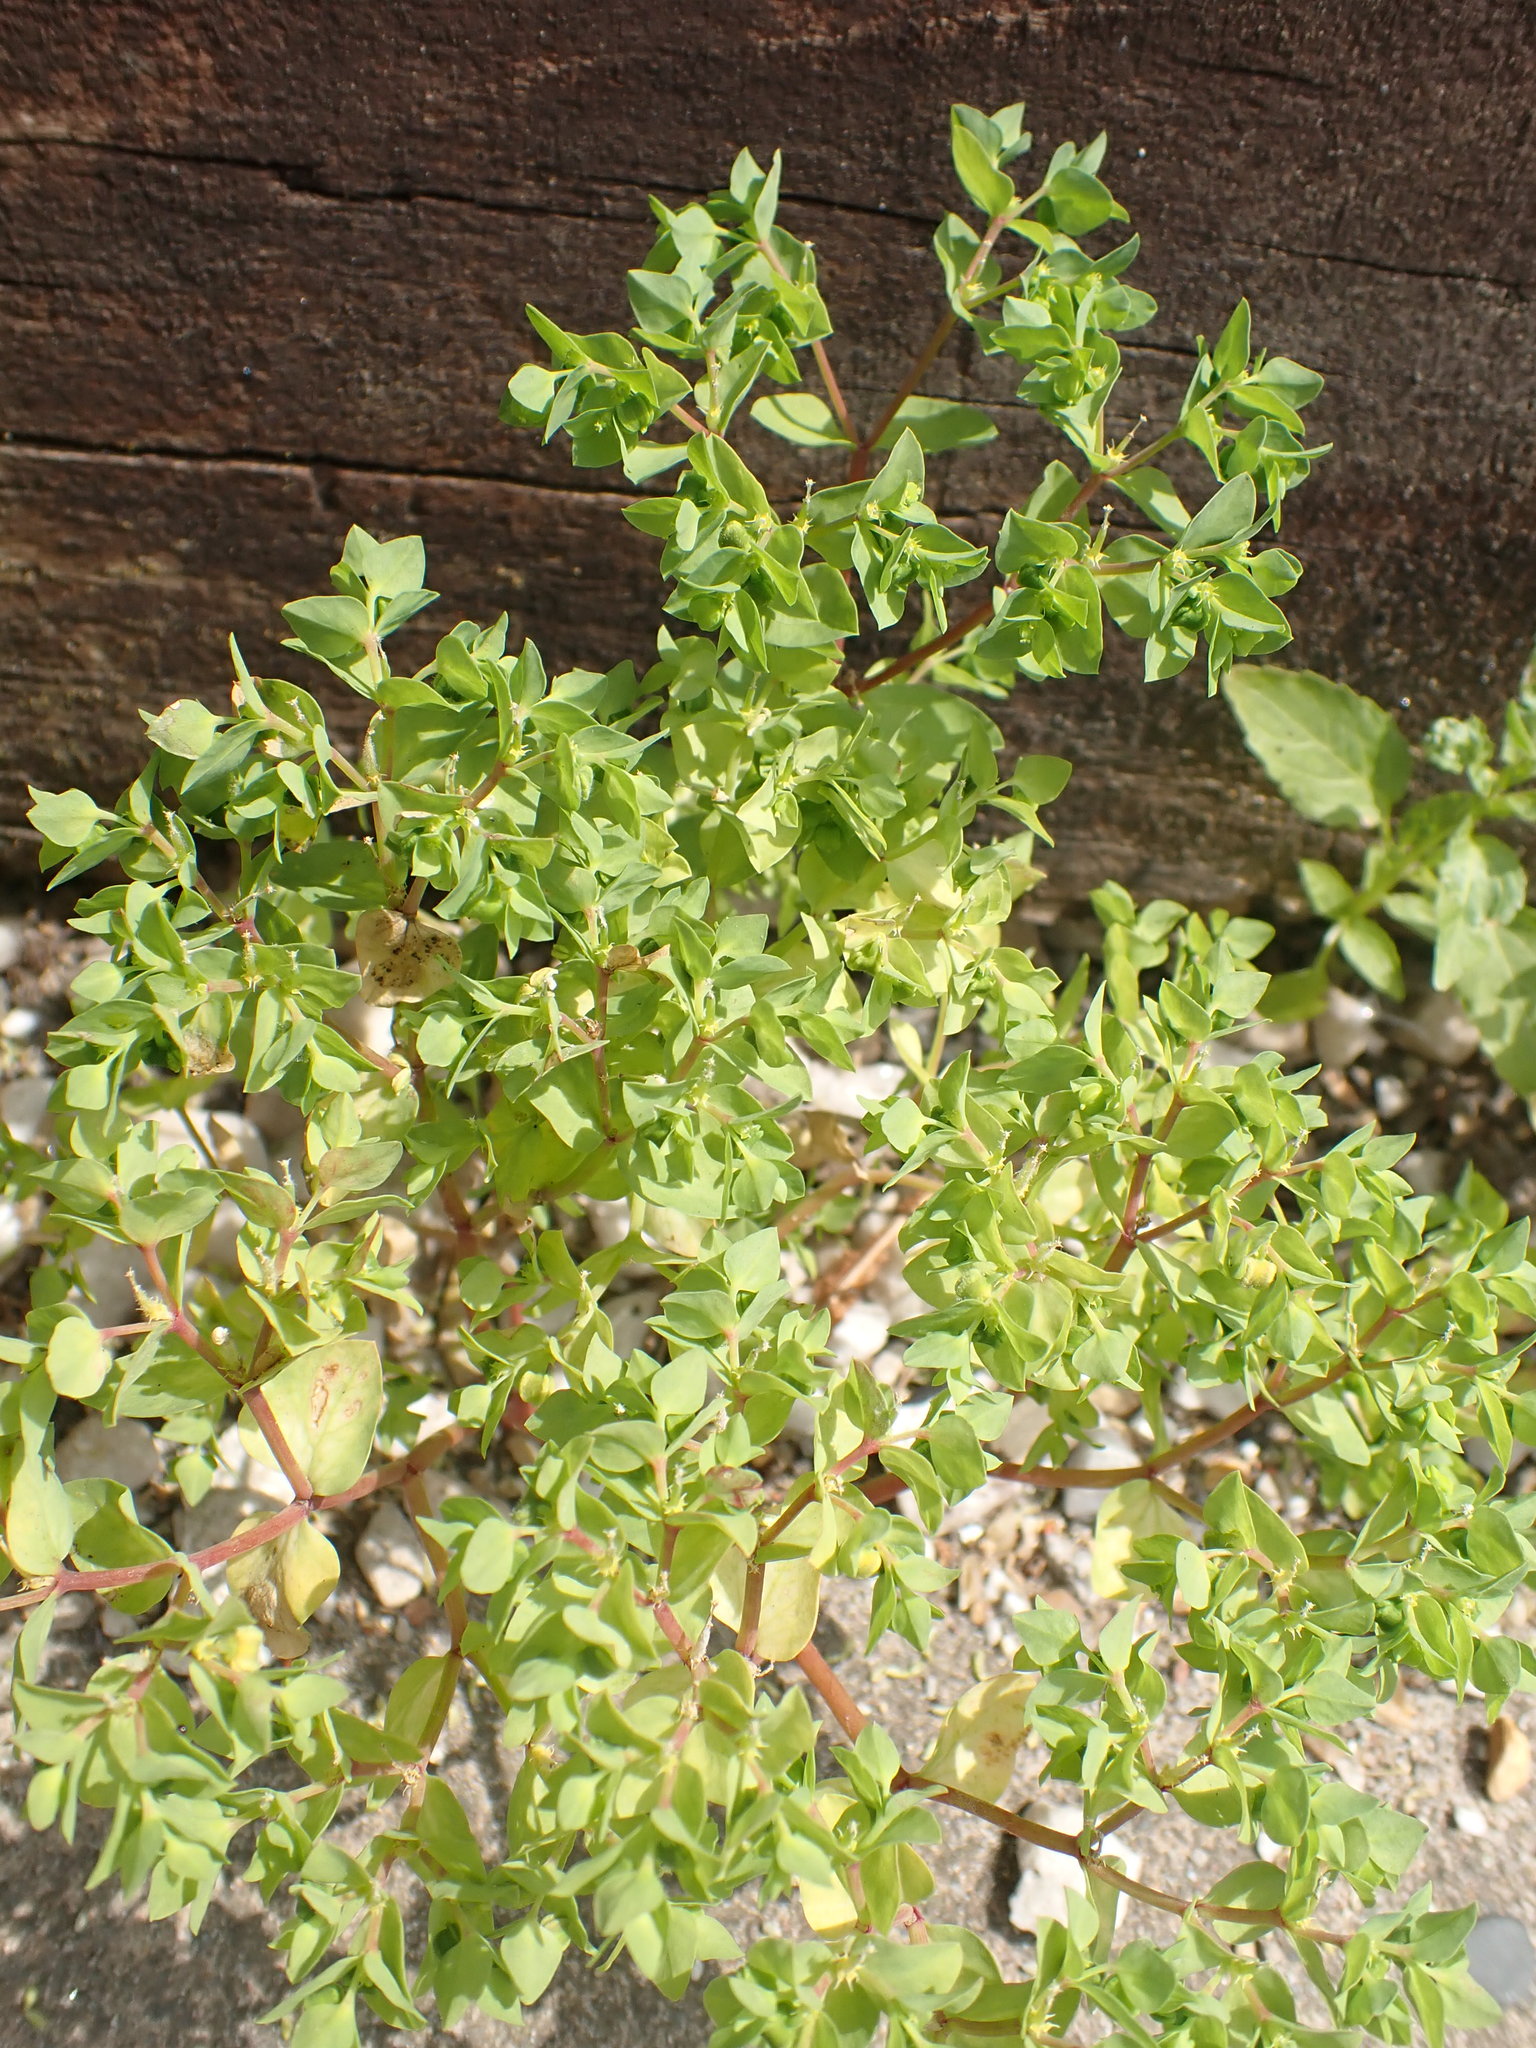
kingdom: Plantae
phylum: Tracheophyta
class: Magnoliopsida
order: Malpighiales
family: Euphorbiaceae
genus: Euphorbia
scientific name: Euphorbia peplus
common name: Petty spurge
